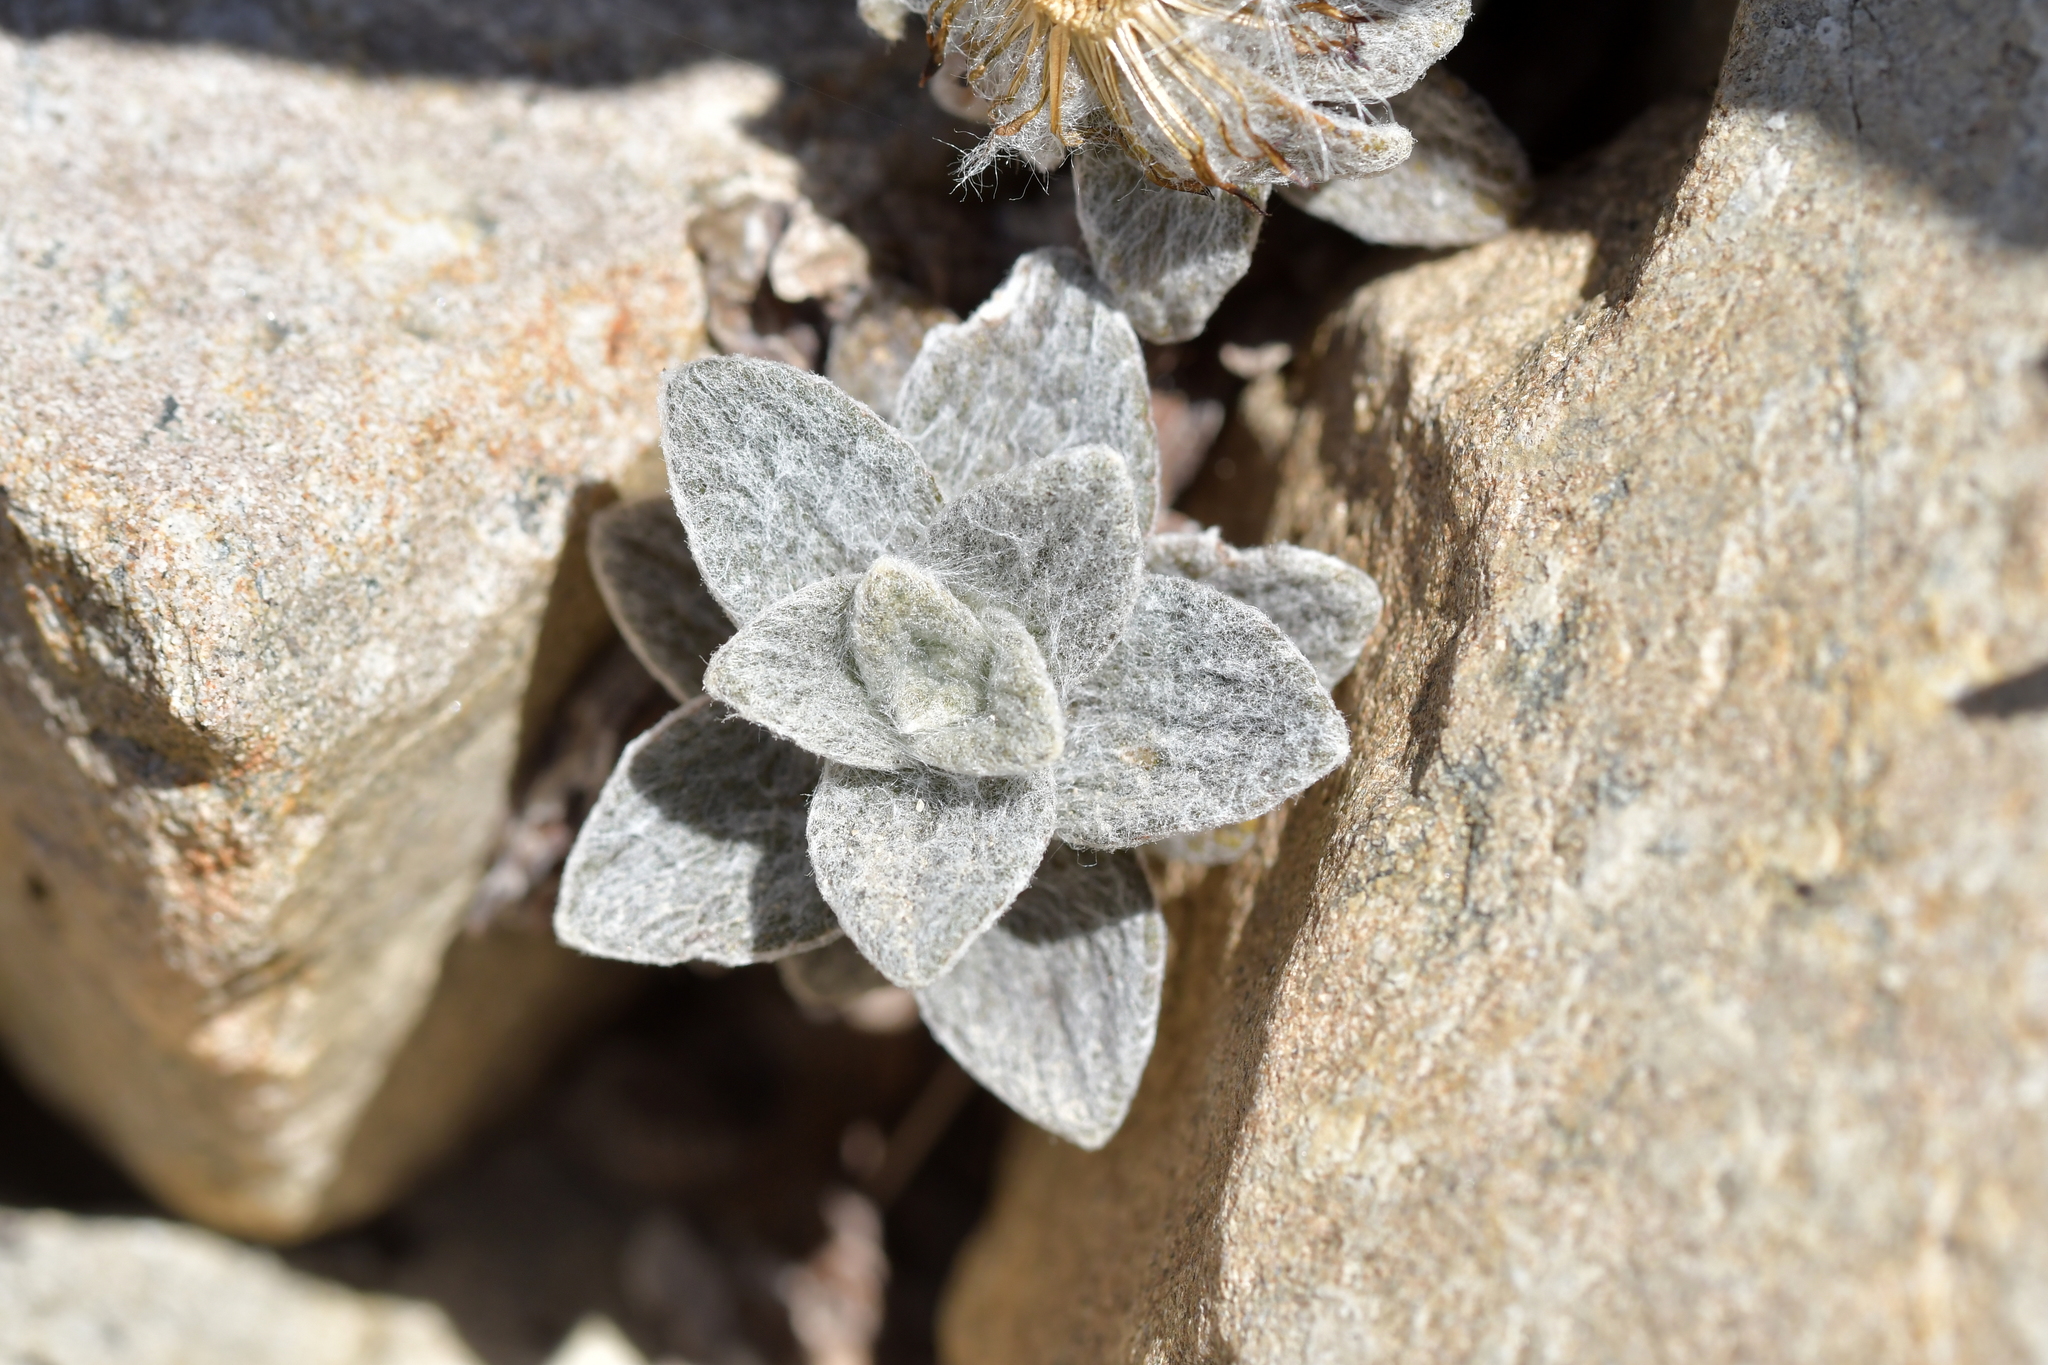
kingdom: Plantae
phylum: Tracheophyta
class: Magnoliopsida
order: Asterales
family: Asteraceae
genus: Haastia
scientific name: Haastia sinclairii
